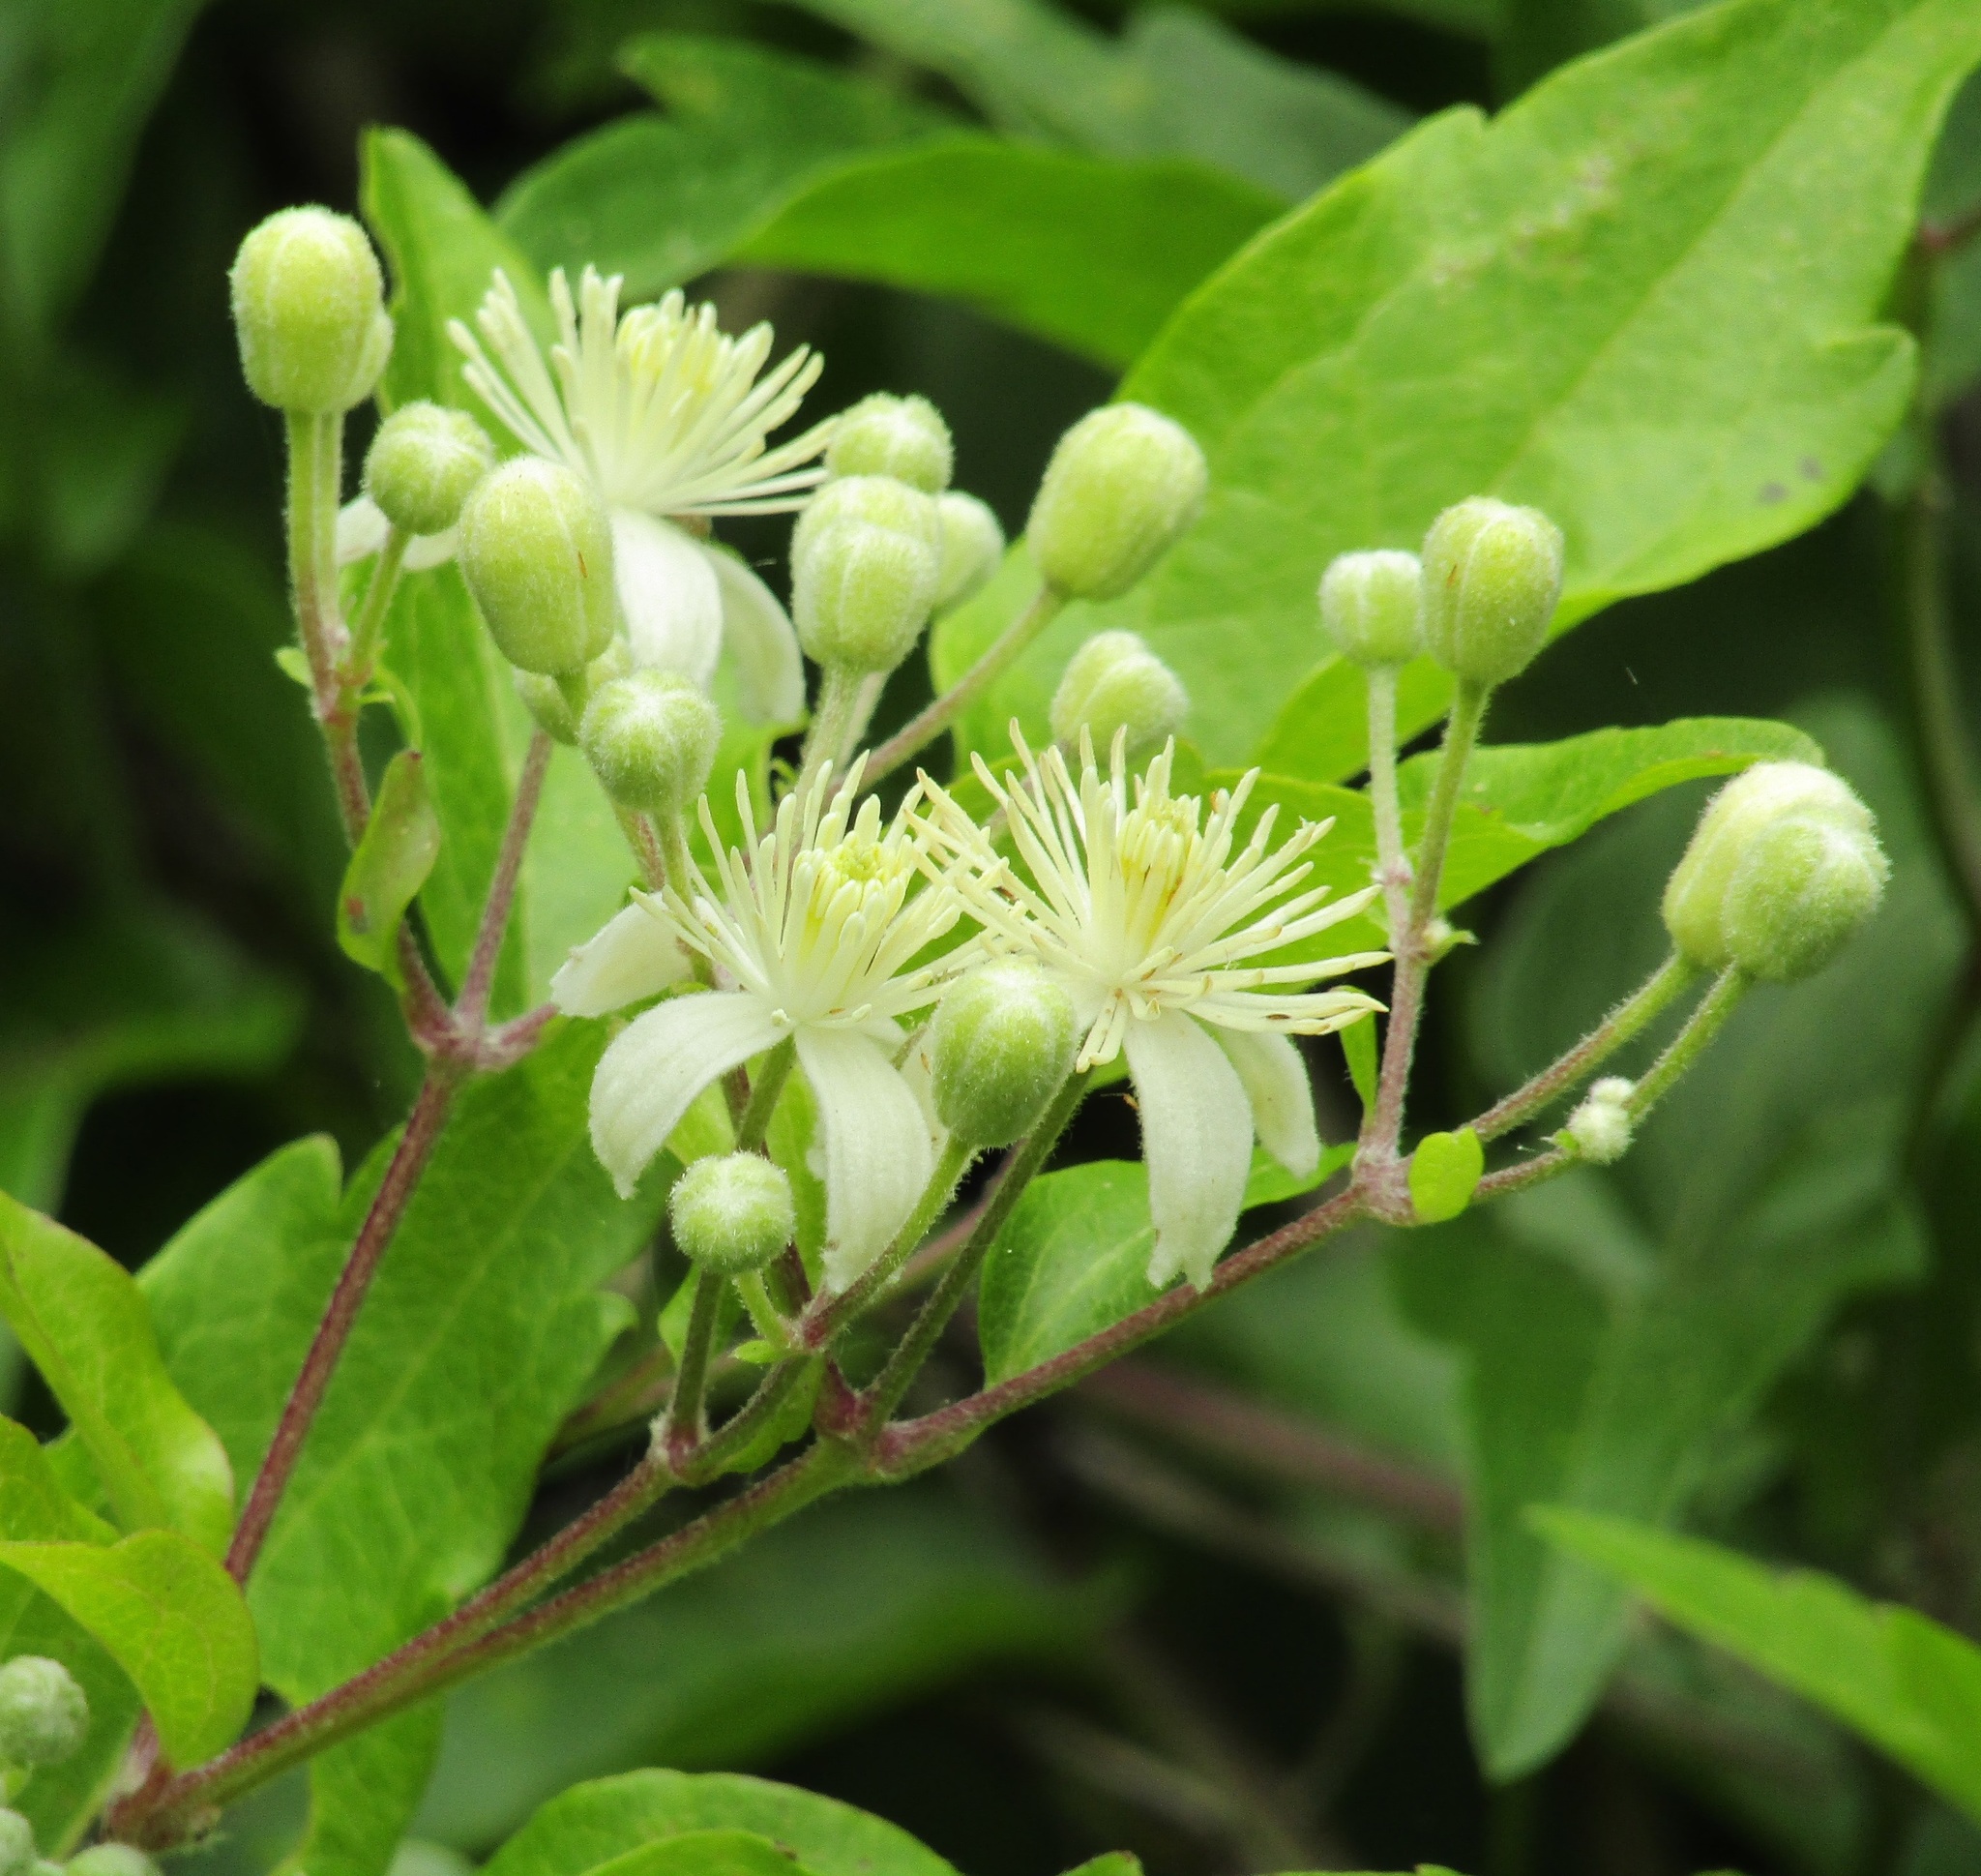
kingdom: Plantae
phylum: Tracheophyta
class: Magnoliopsida
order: Ranunculales
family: Ranunculaceae
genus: Clematis
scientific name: Clematis vitalba
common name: Evergreen clematis
